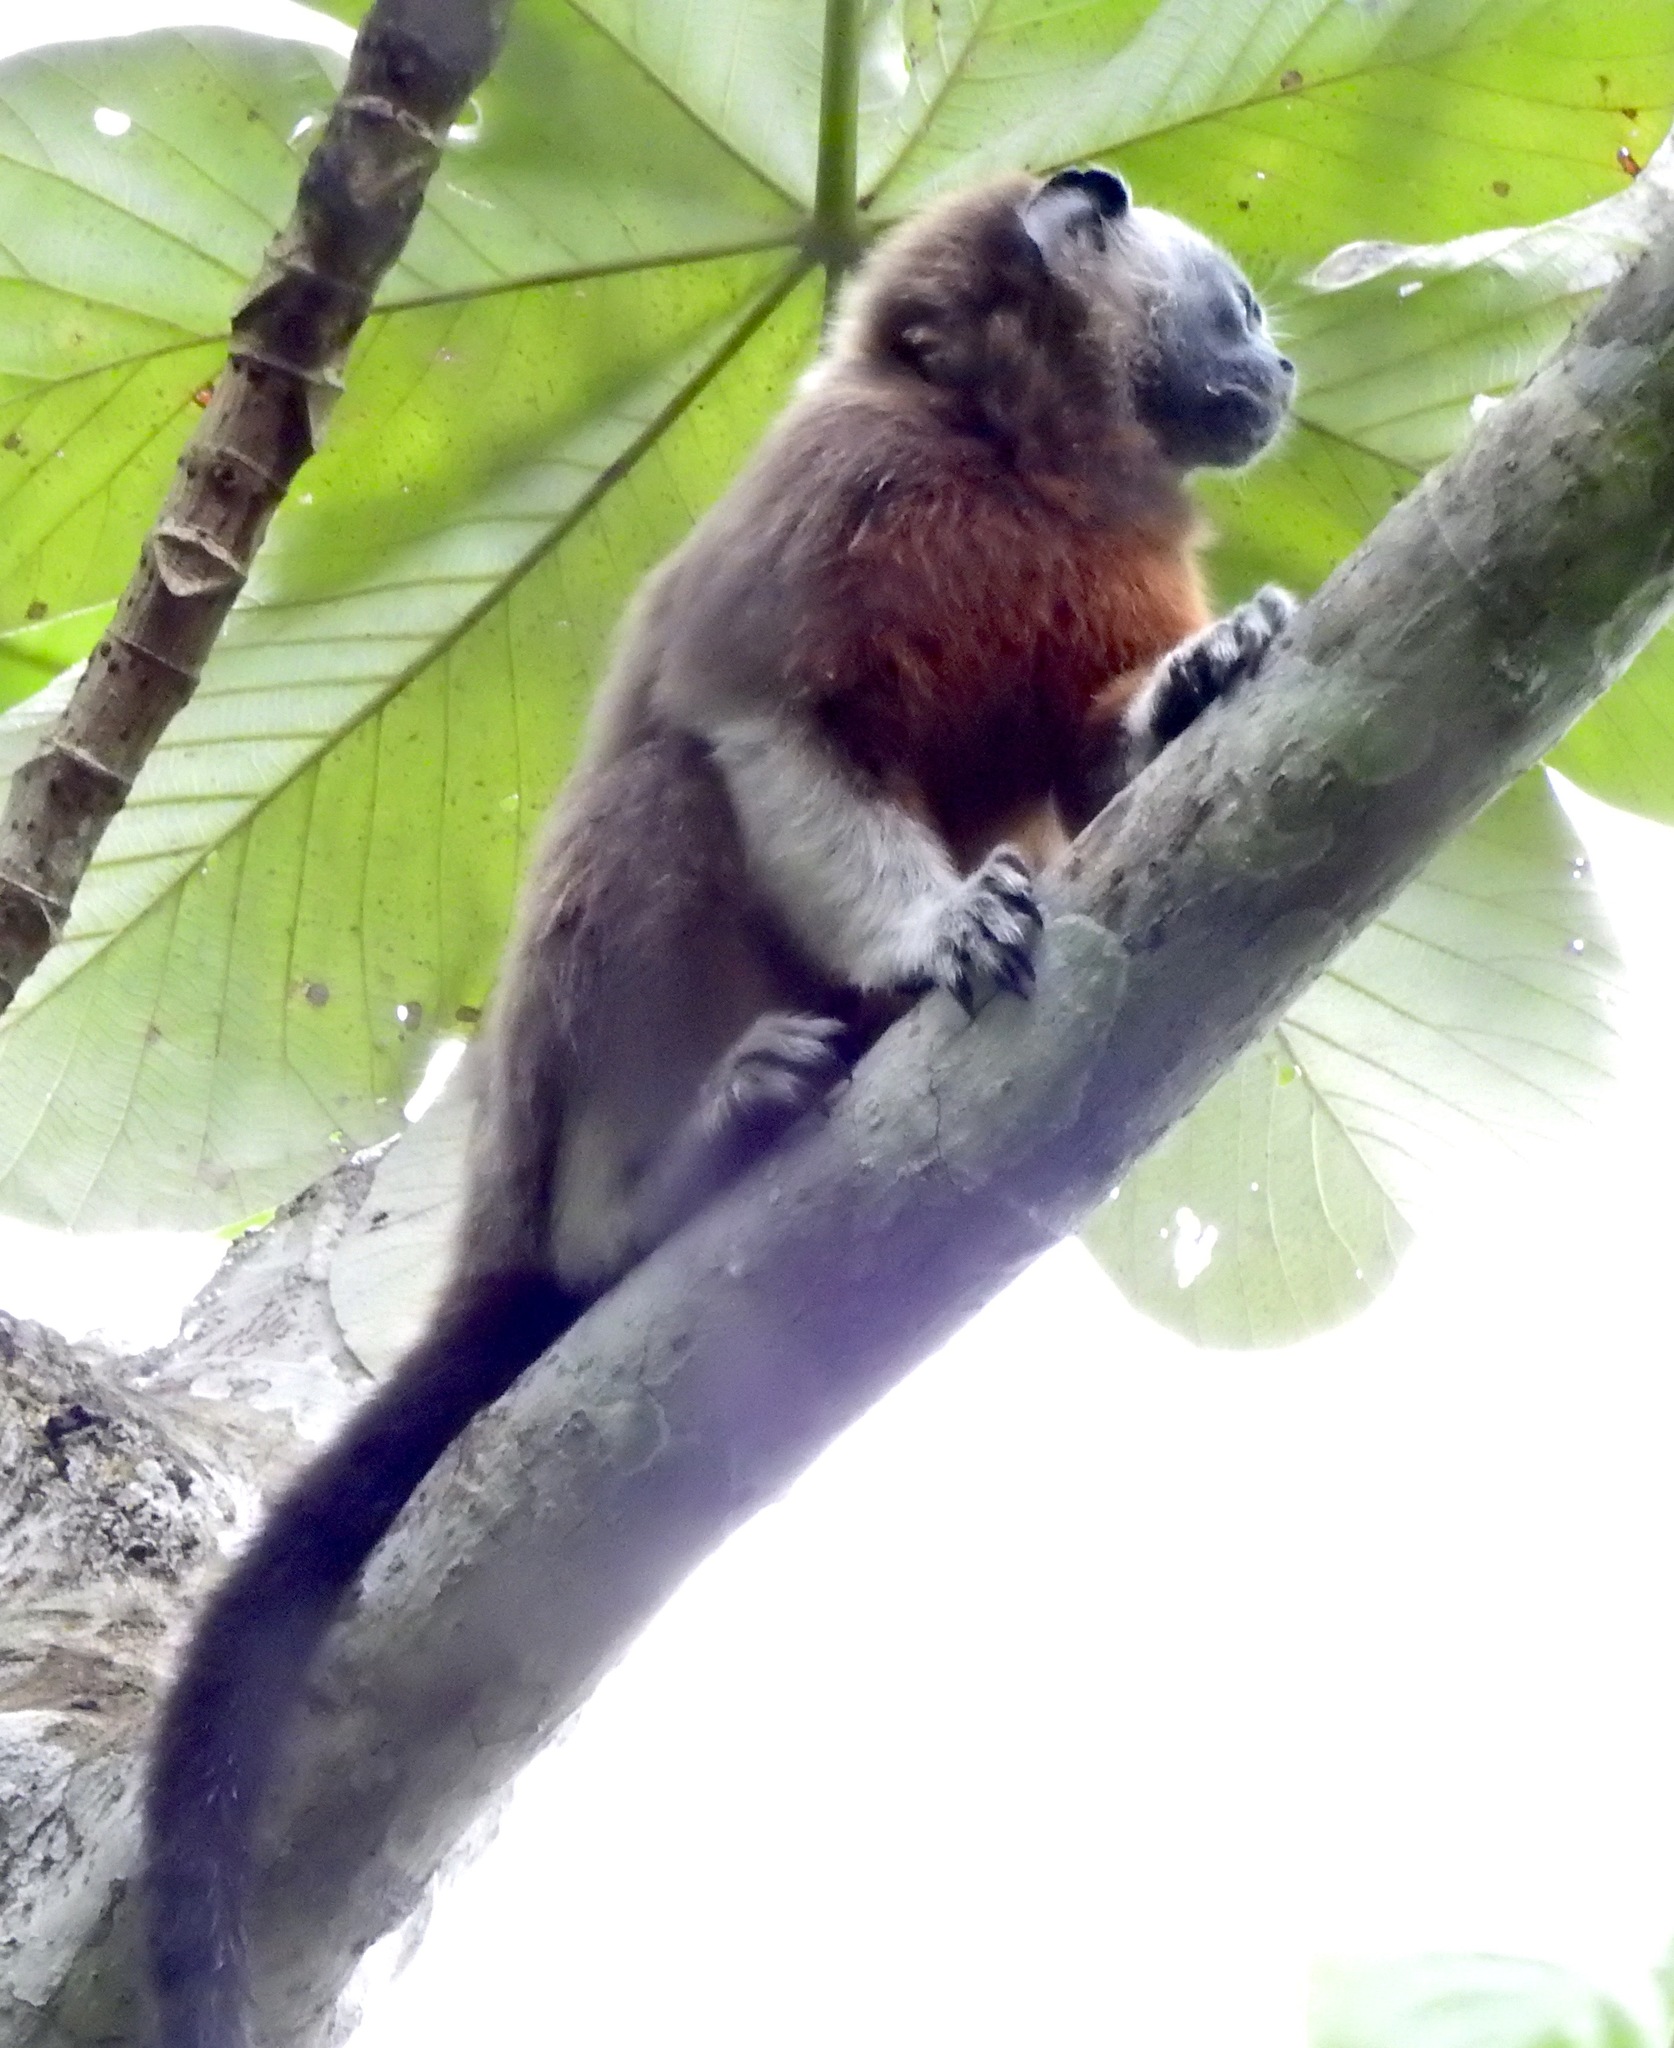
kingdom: Animalia
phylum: Chordata
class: Mammalia
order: Primates
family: Callitrichidae
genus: Saguinus
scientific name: Saguinus leucopus
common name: White-footed tamarin
